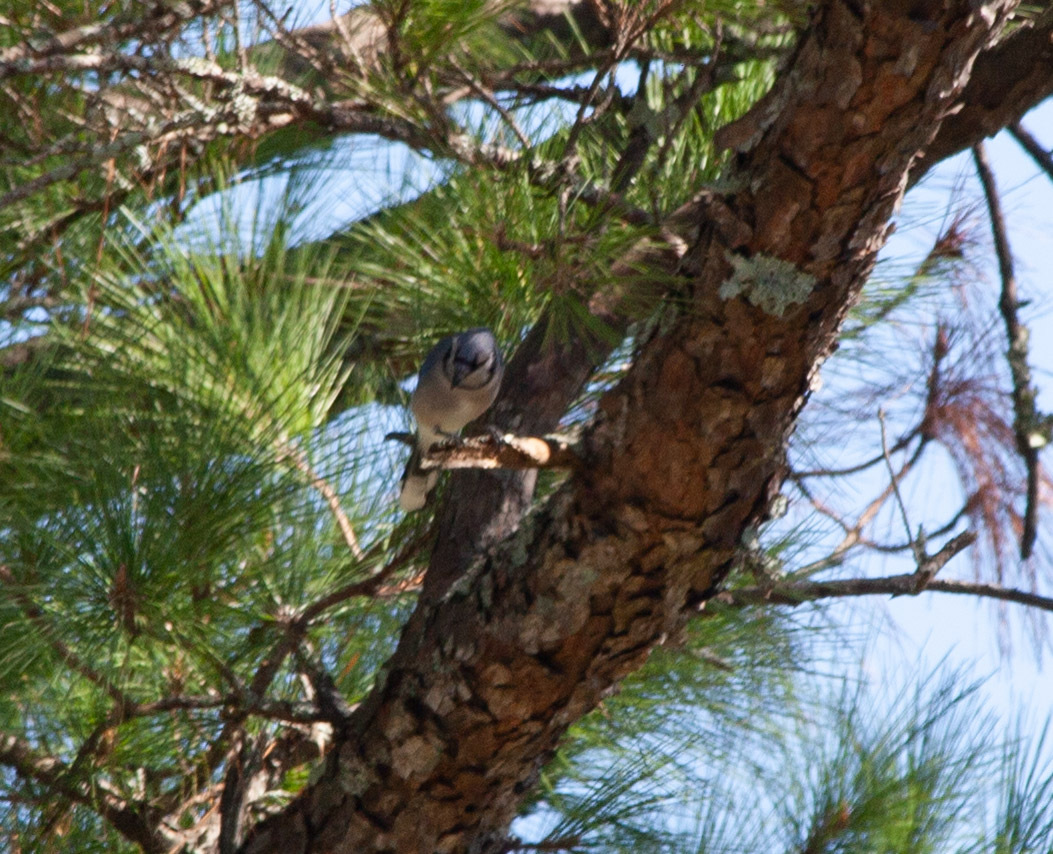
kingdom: Animalia
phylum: Chordata
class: Aves
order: Passeriformes
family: Corvidae
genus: Cyanocitta
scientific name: Cyanocitta cristata
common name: Blue jay
